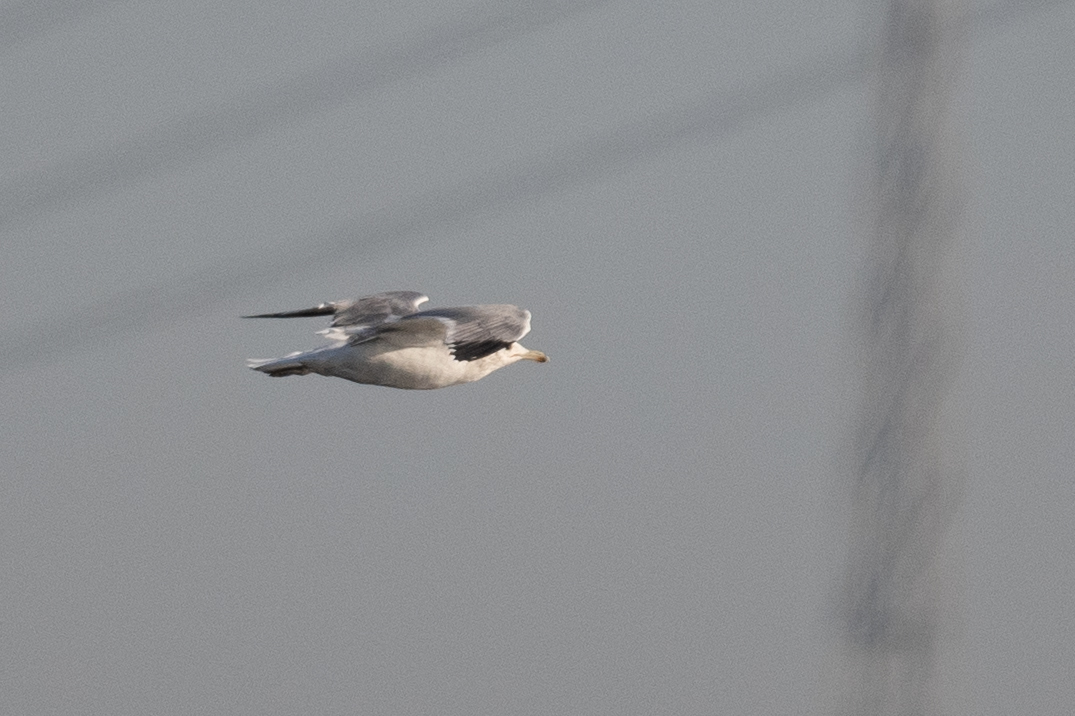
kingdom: Animalia
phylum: Chordata
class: Aves
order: Charadriiformes
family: Laridae
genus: Larus
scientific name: Larus californicus
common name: California gull
